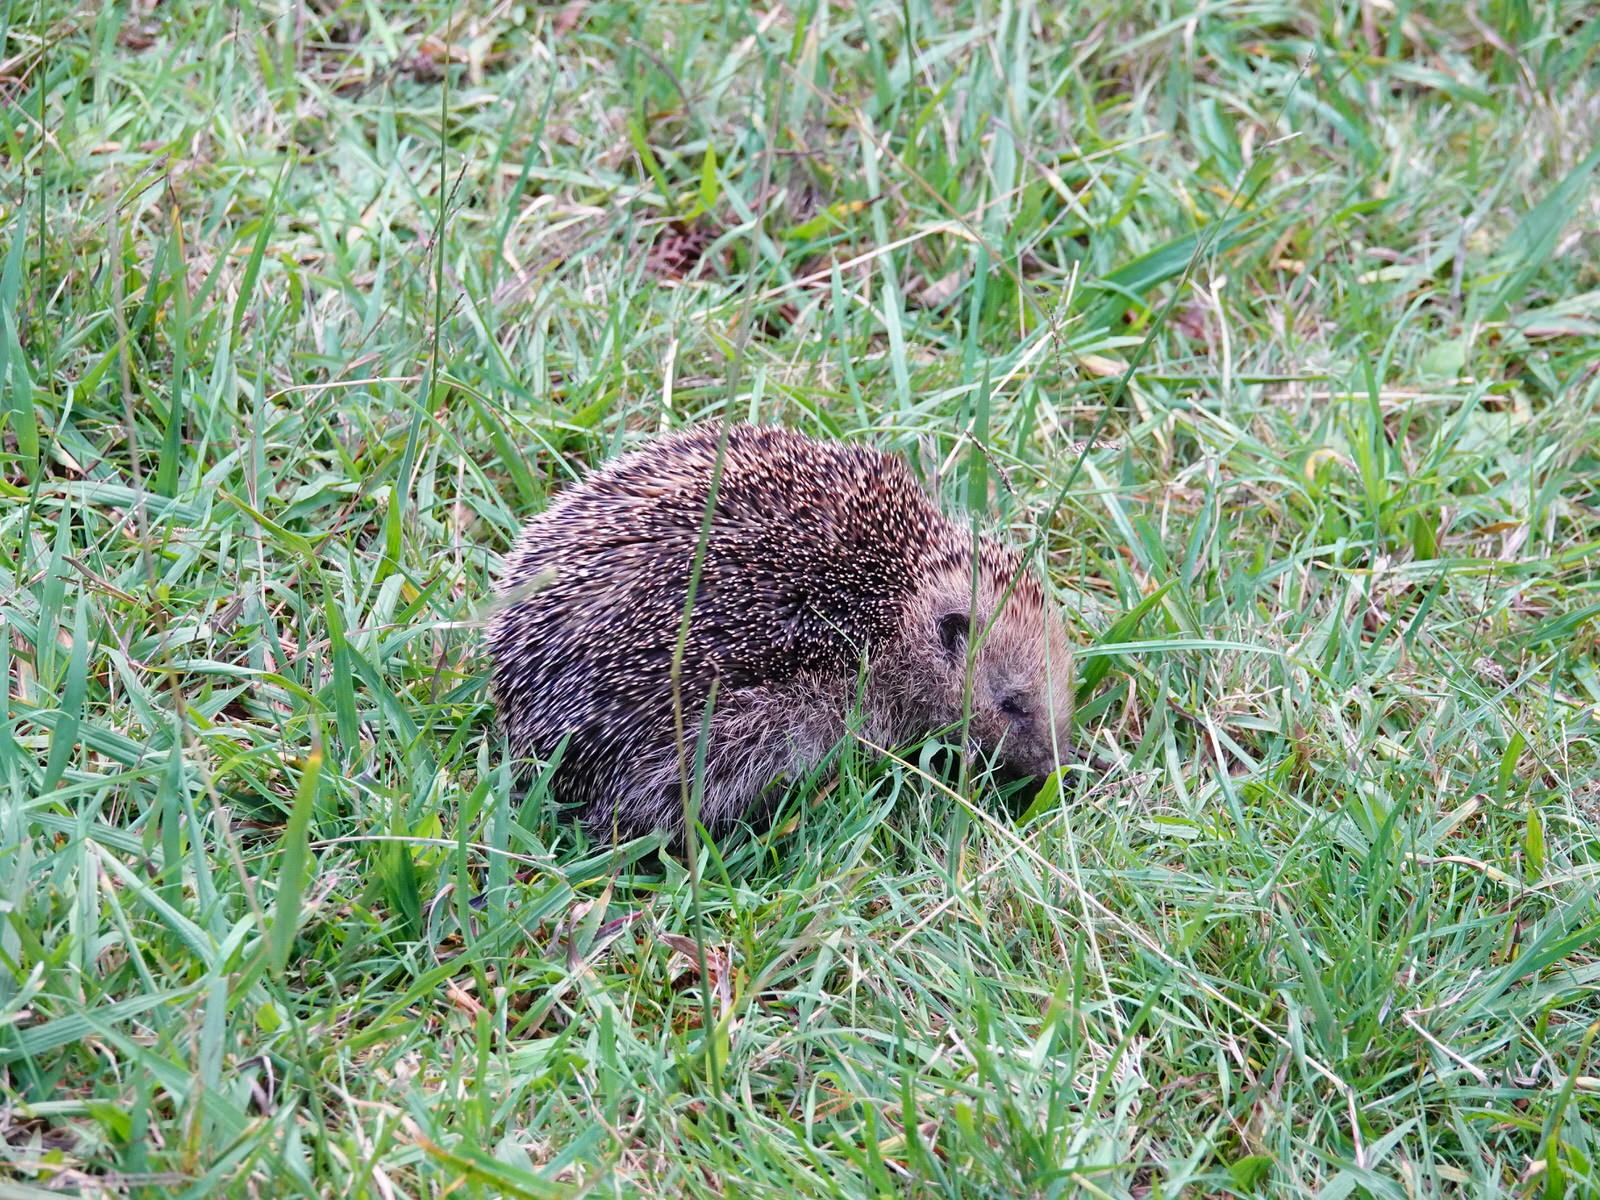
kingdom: Animalia
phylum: Chordata
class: Mammalia
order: Erinaceomorpha
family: Erinaceidae
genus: Erinaceus
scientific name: Erinaceus europaeus
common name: West european hedgehog
